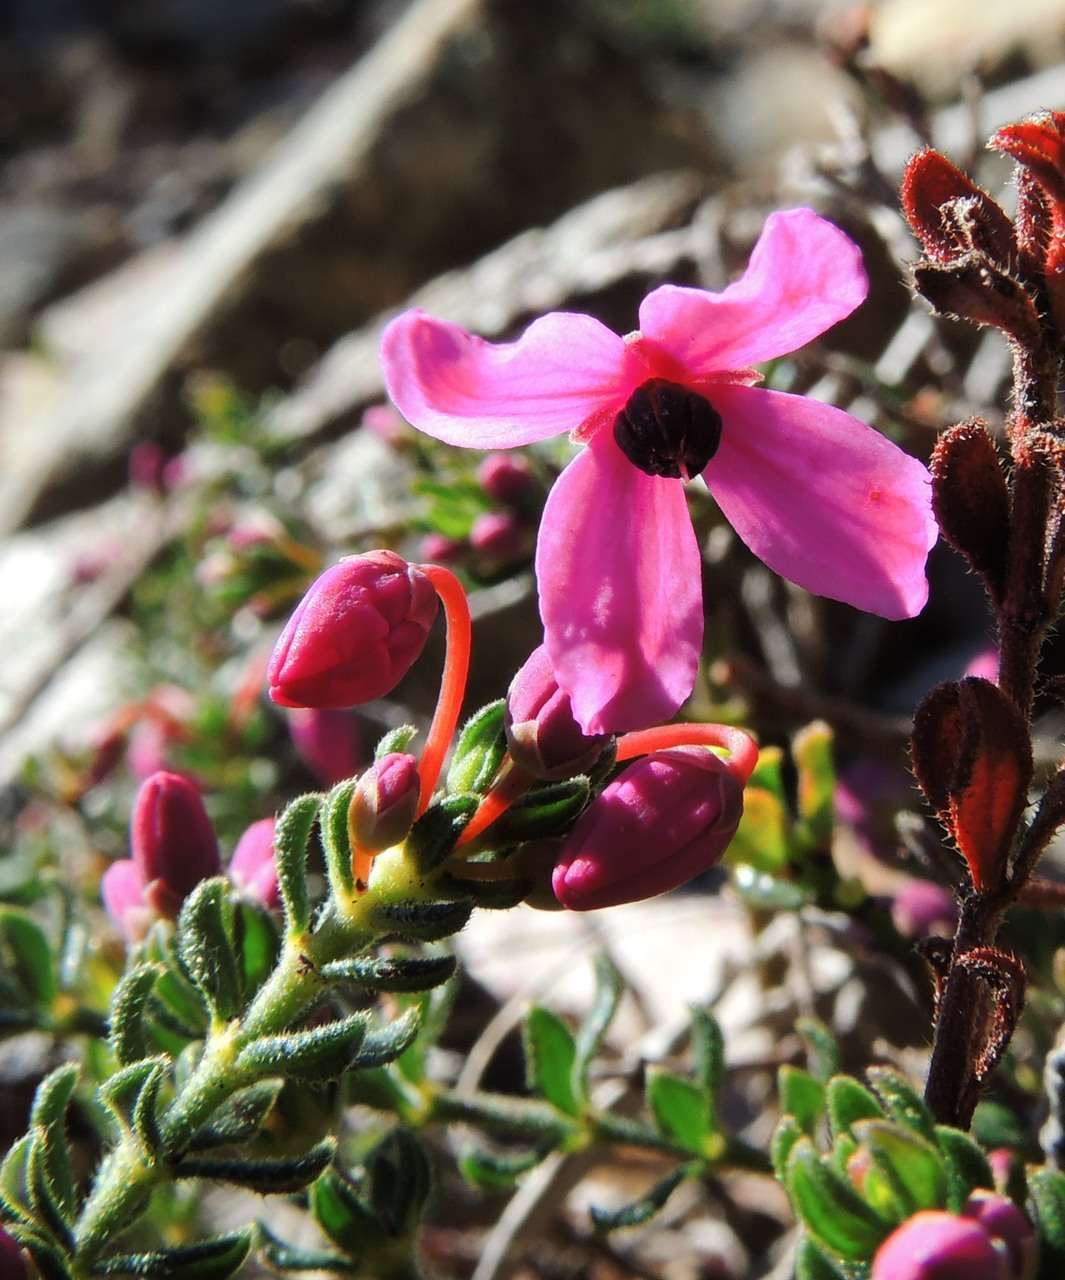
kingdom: Plantae
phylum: Tracheophyta
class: Magnoliopsida
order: Oxalidales
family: Elaeocarpaceae
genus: Tetratheca
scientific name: Tetratheca bauerifolia
